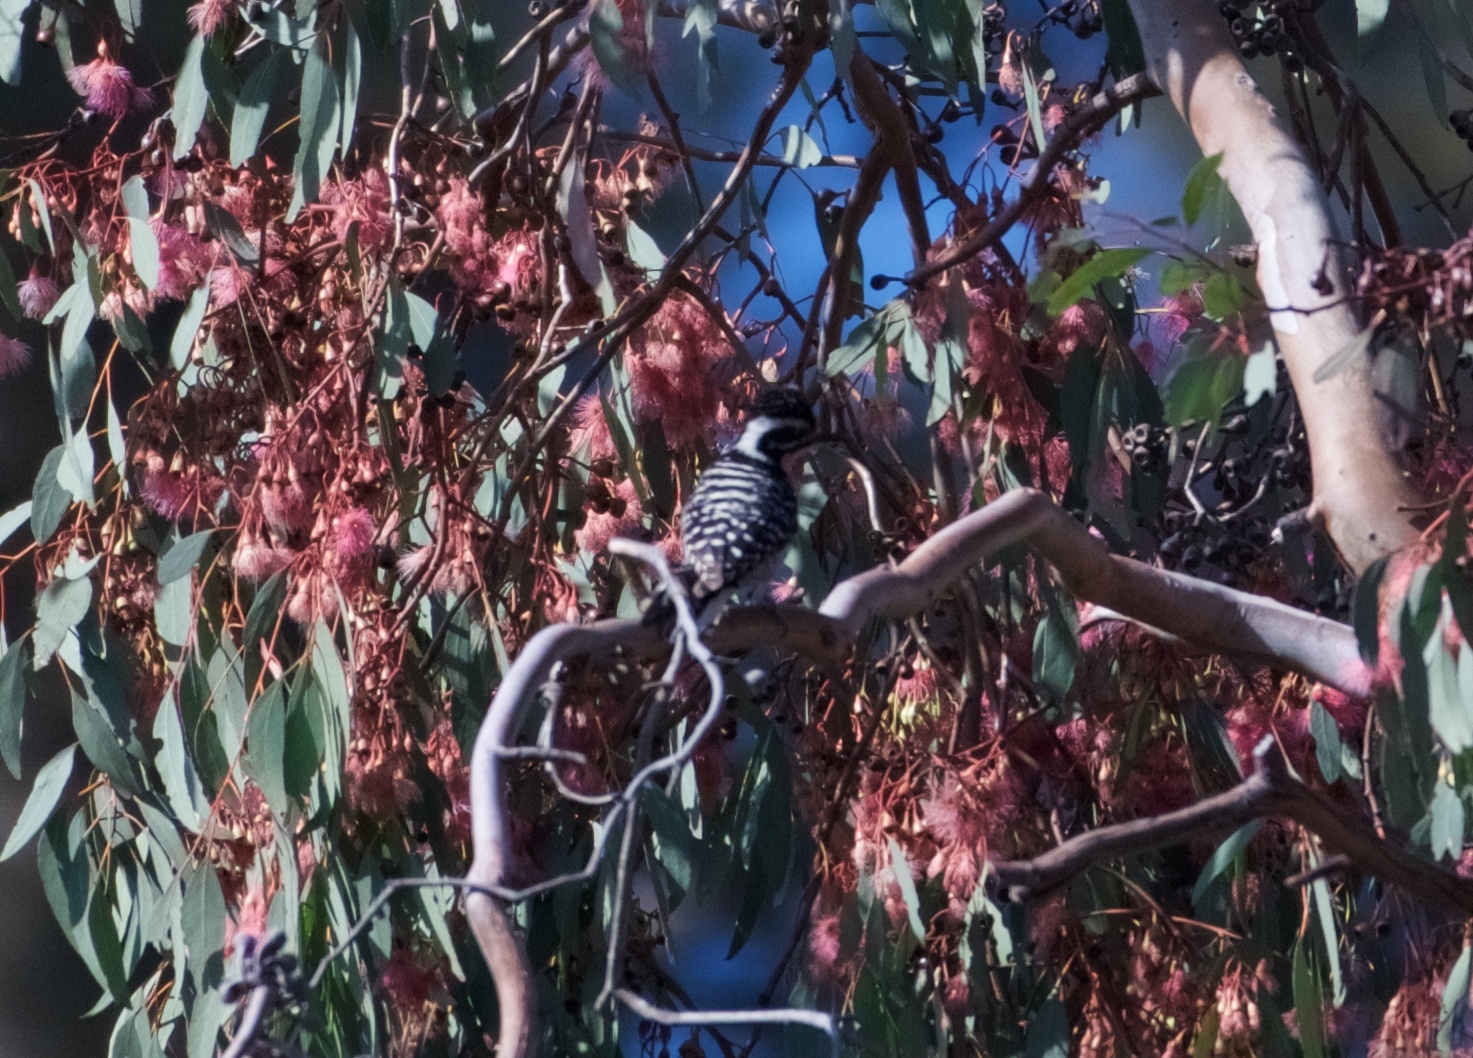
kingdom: Animalia
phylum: Chordata
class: Aves
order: Piciformes
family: Picidae
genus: Dryobates
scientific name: Dryobates nuttallii
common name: Nuttall's woodpecker
